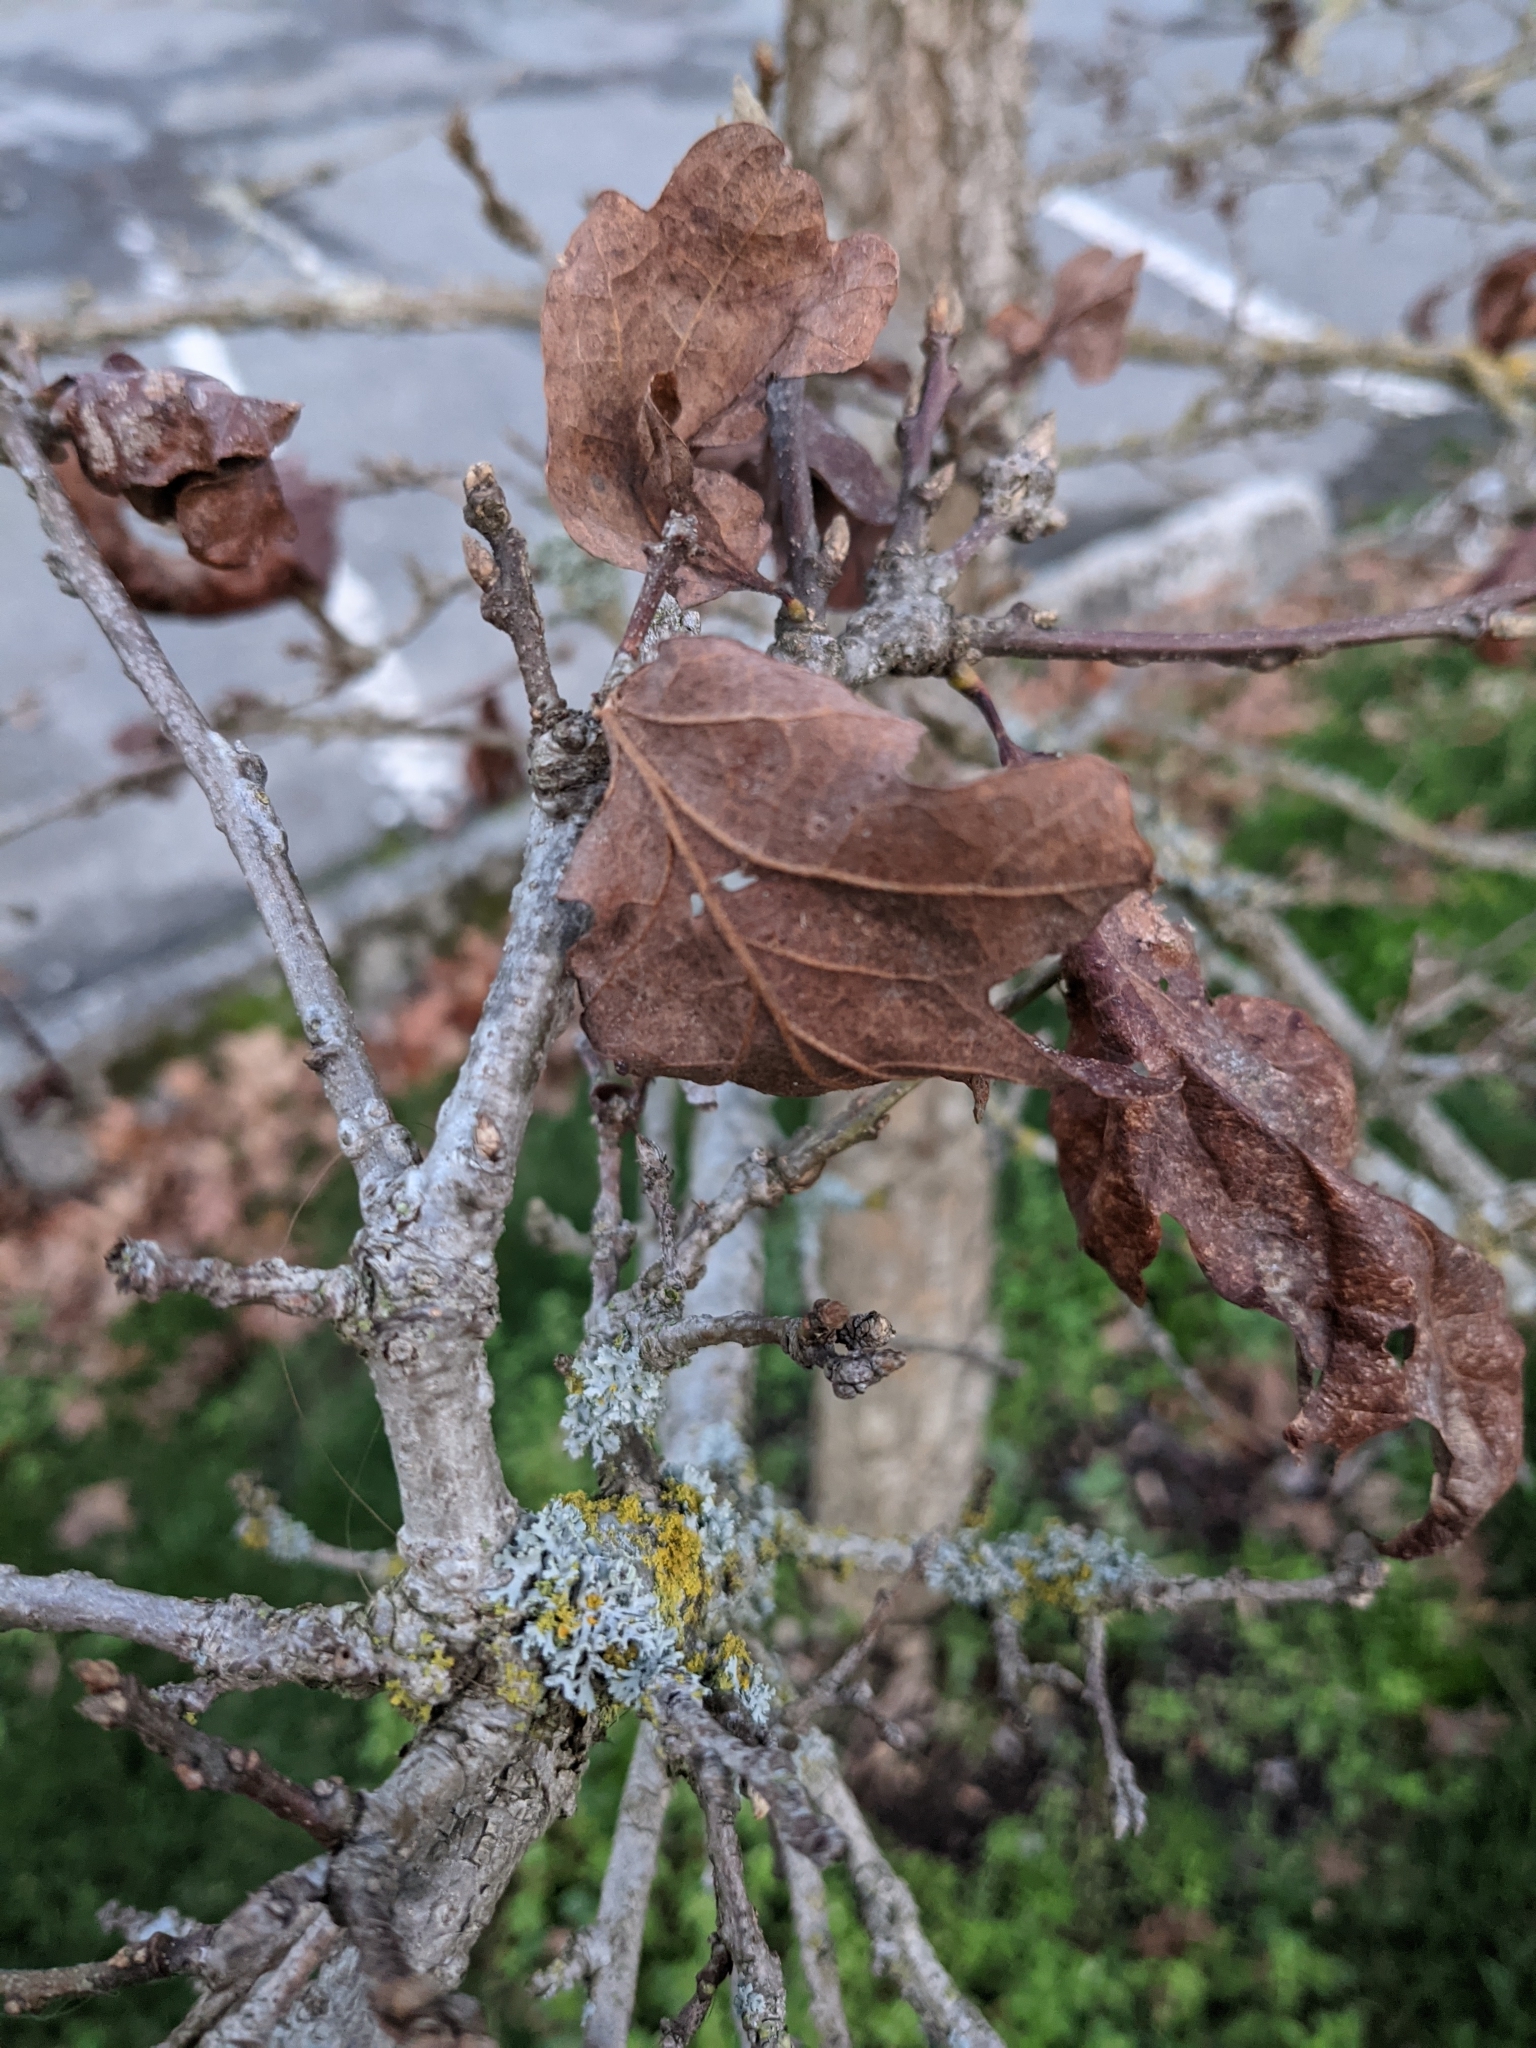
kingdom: Plantae
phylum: Tracheophyta
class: Magnoliopsida
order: Fagales
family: Fagaceae
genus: Quercus
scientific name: Quercus garryana
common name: Garry oak
